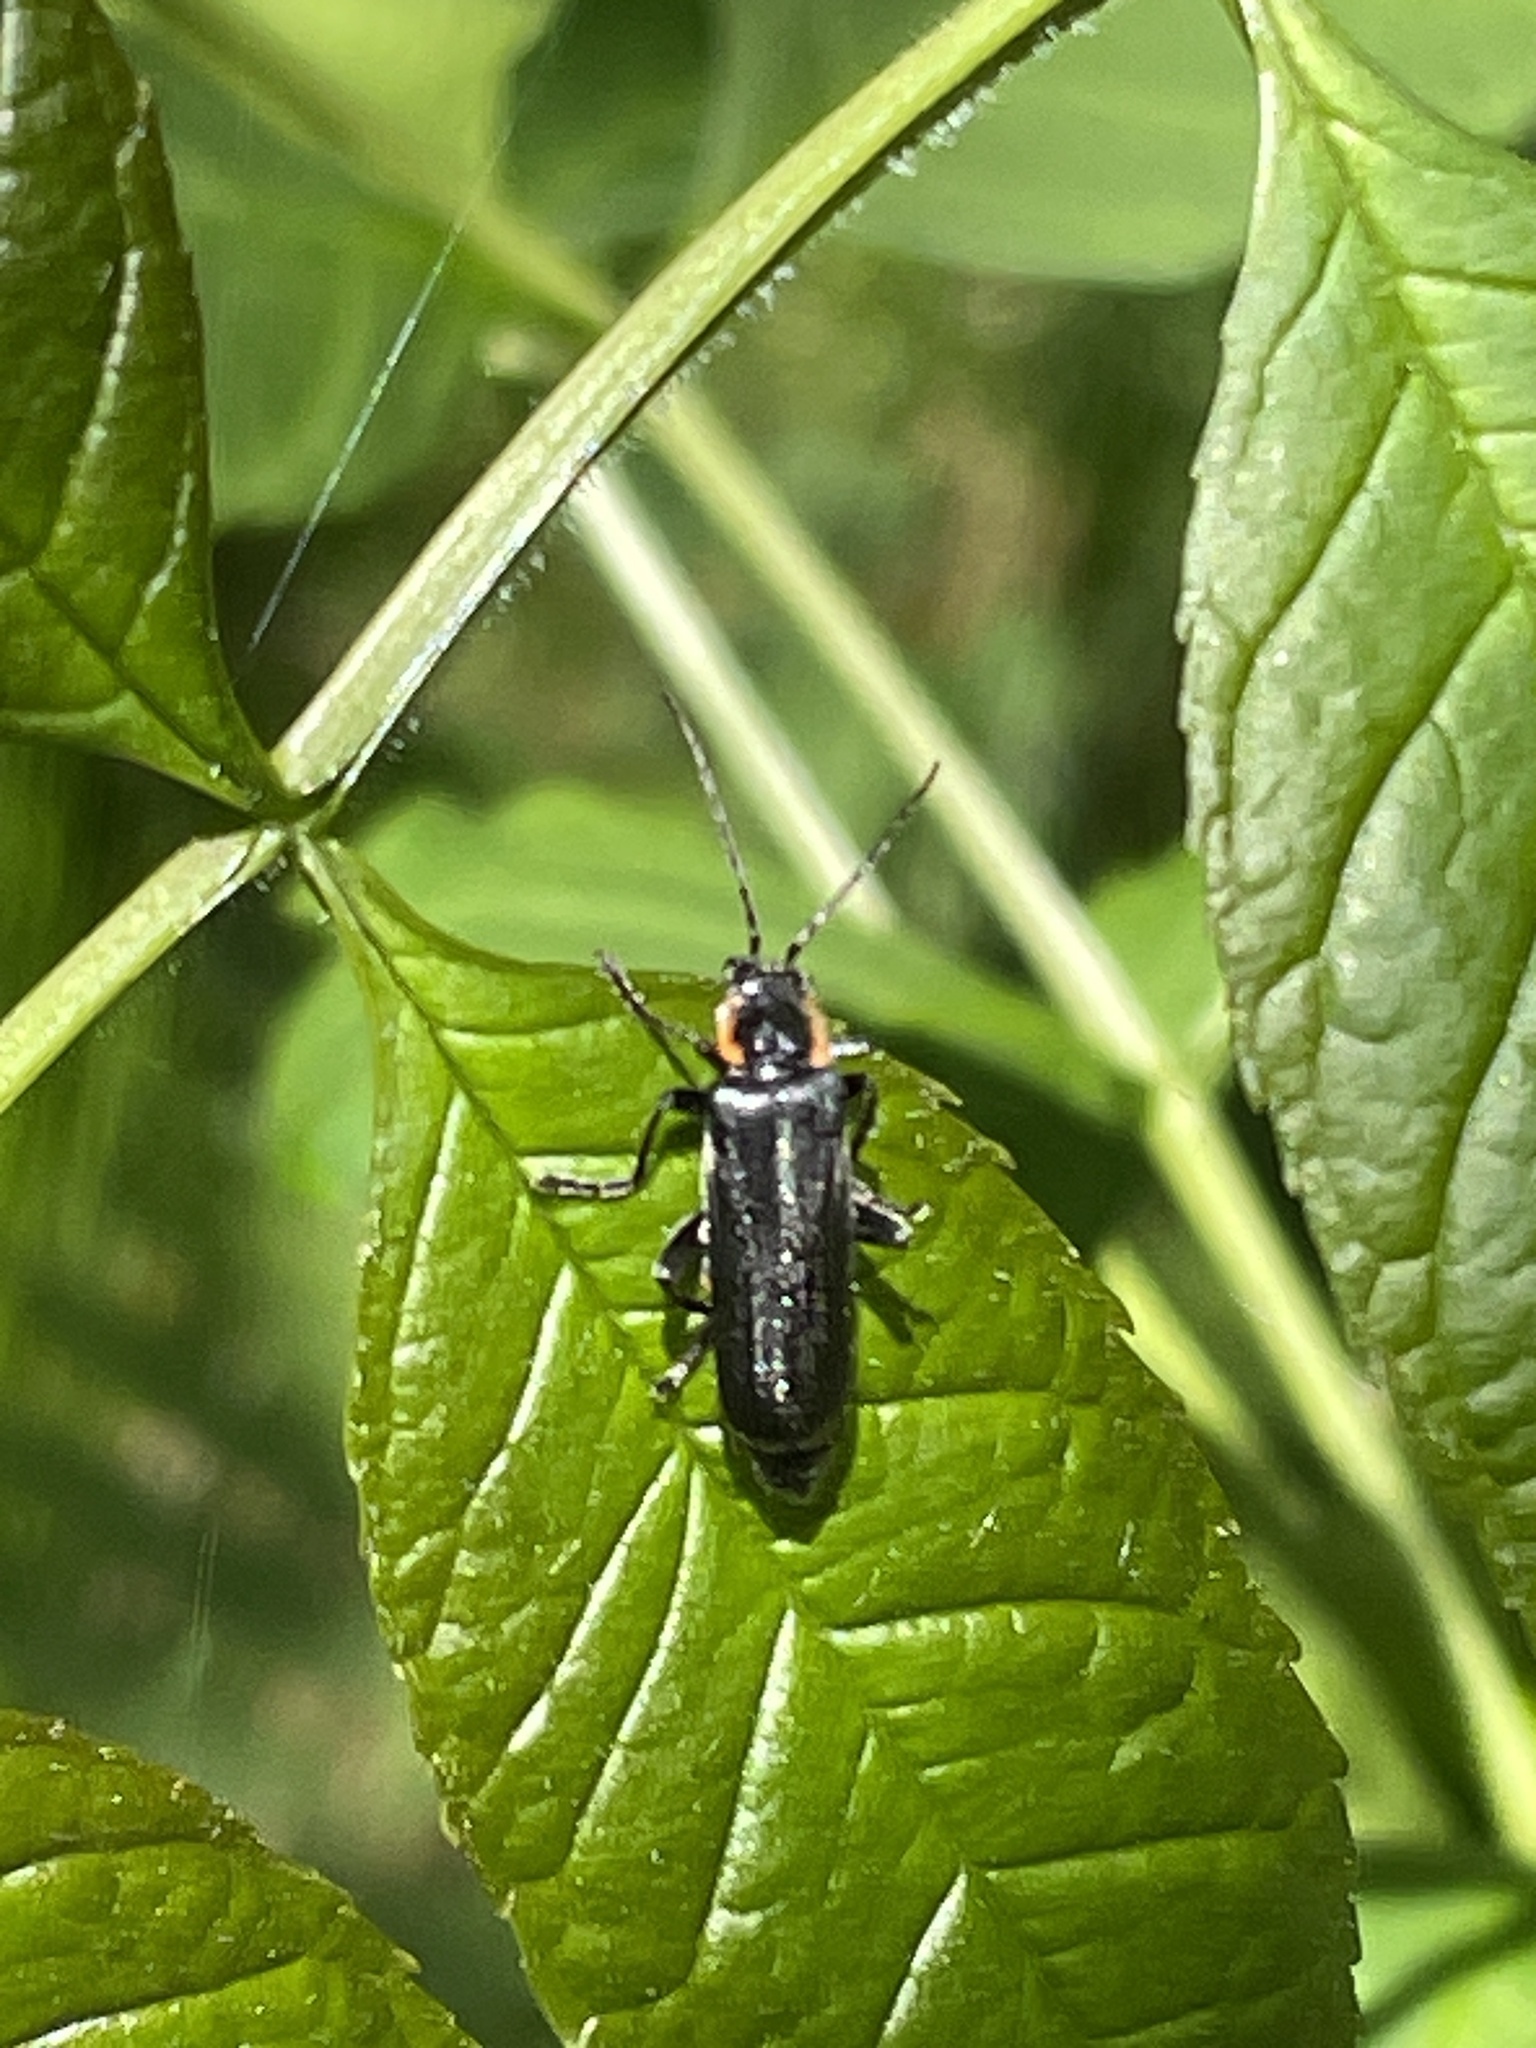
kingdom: Animalia
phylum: Arthropoda
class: Insecta
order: Coleoptera
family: Cantharidae
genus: Cantharis
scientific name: Cantharis obscura
